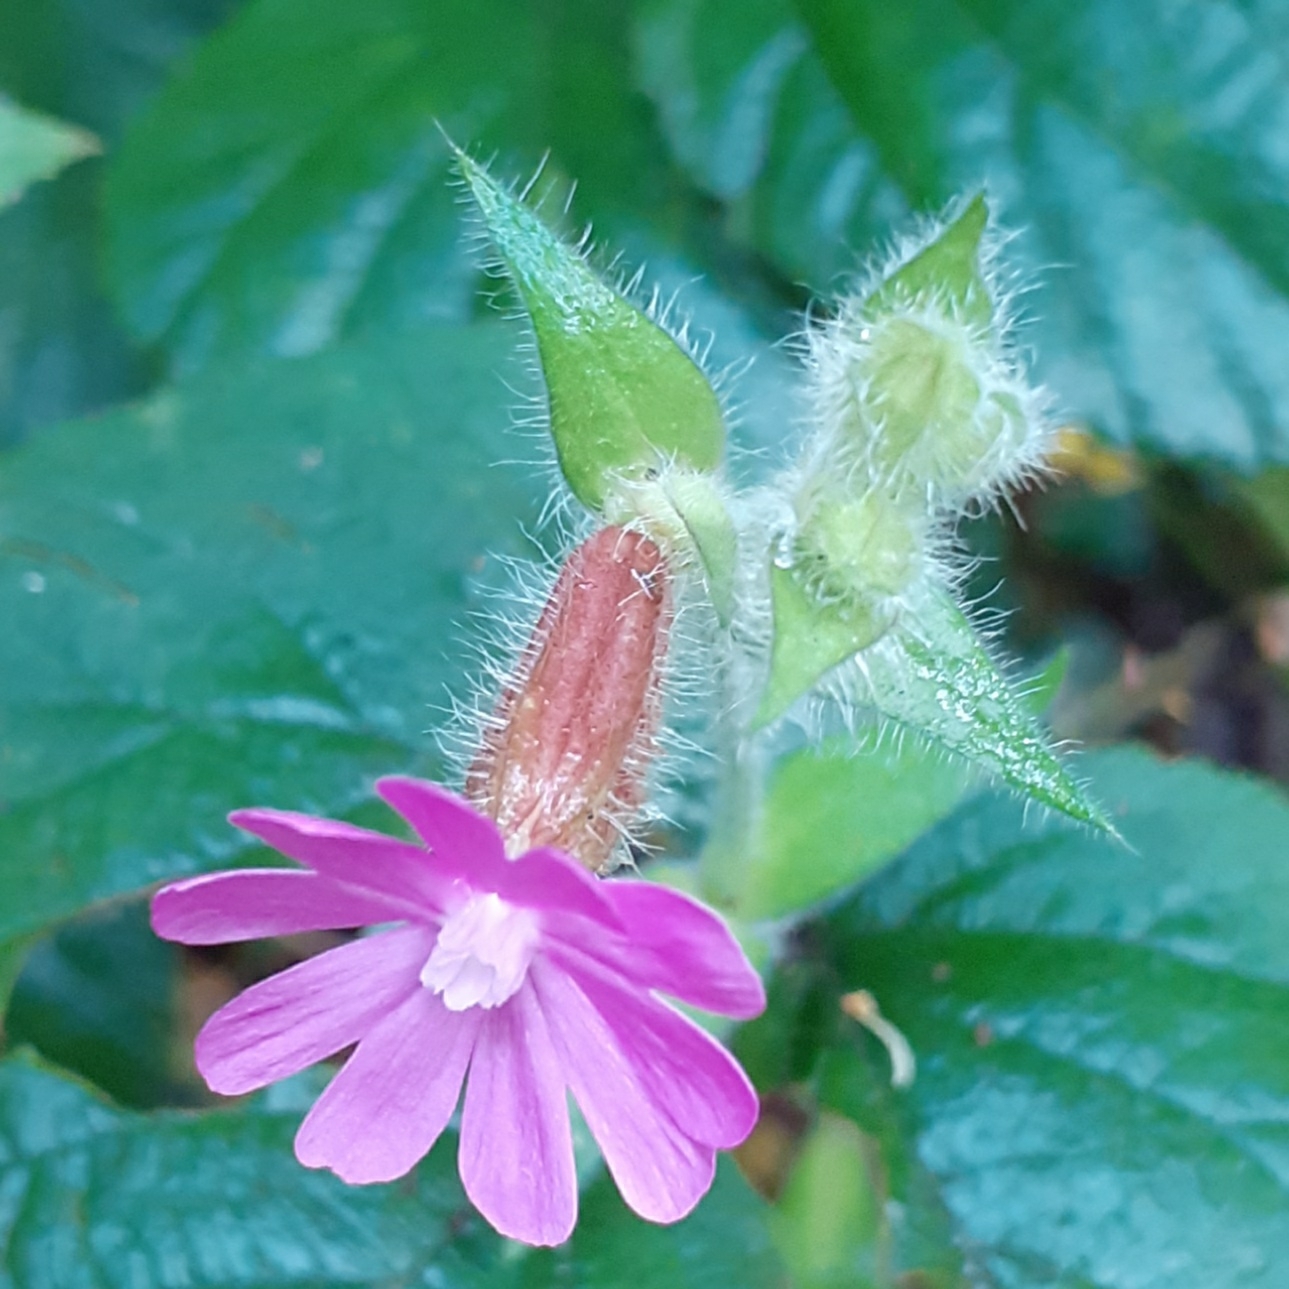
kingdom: Plantae
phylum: Tracheophyta
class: Magnoliopsida
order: Caryophyllales
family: Caryophyllaceae
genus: Silene
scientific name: Silene dioica
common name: Red campion
